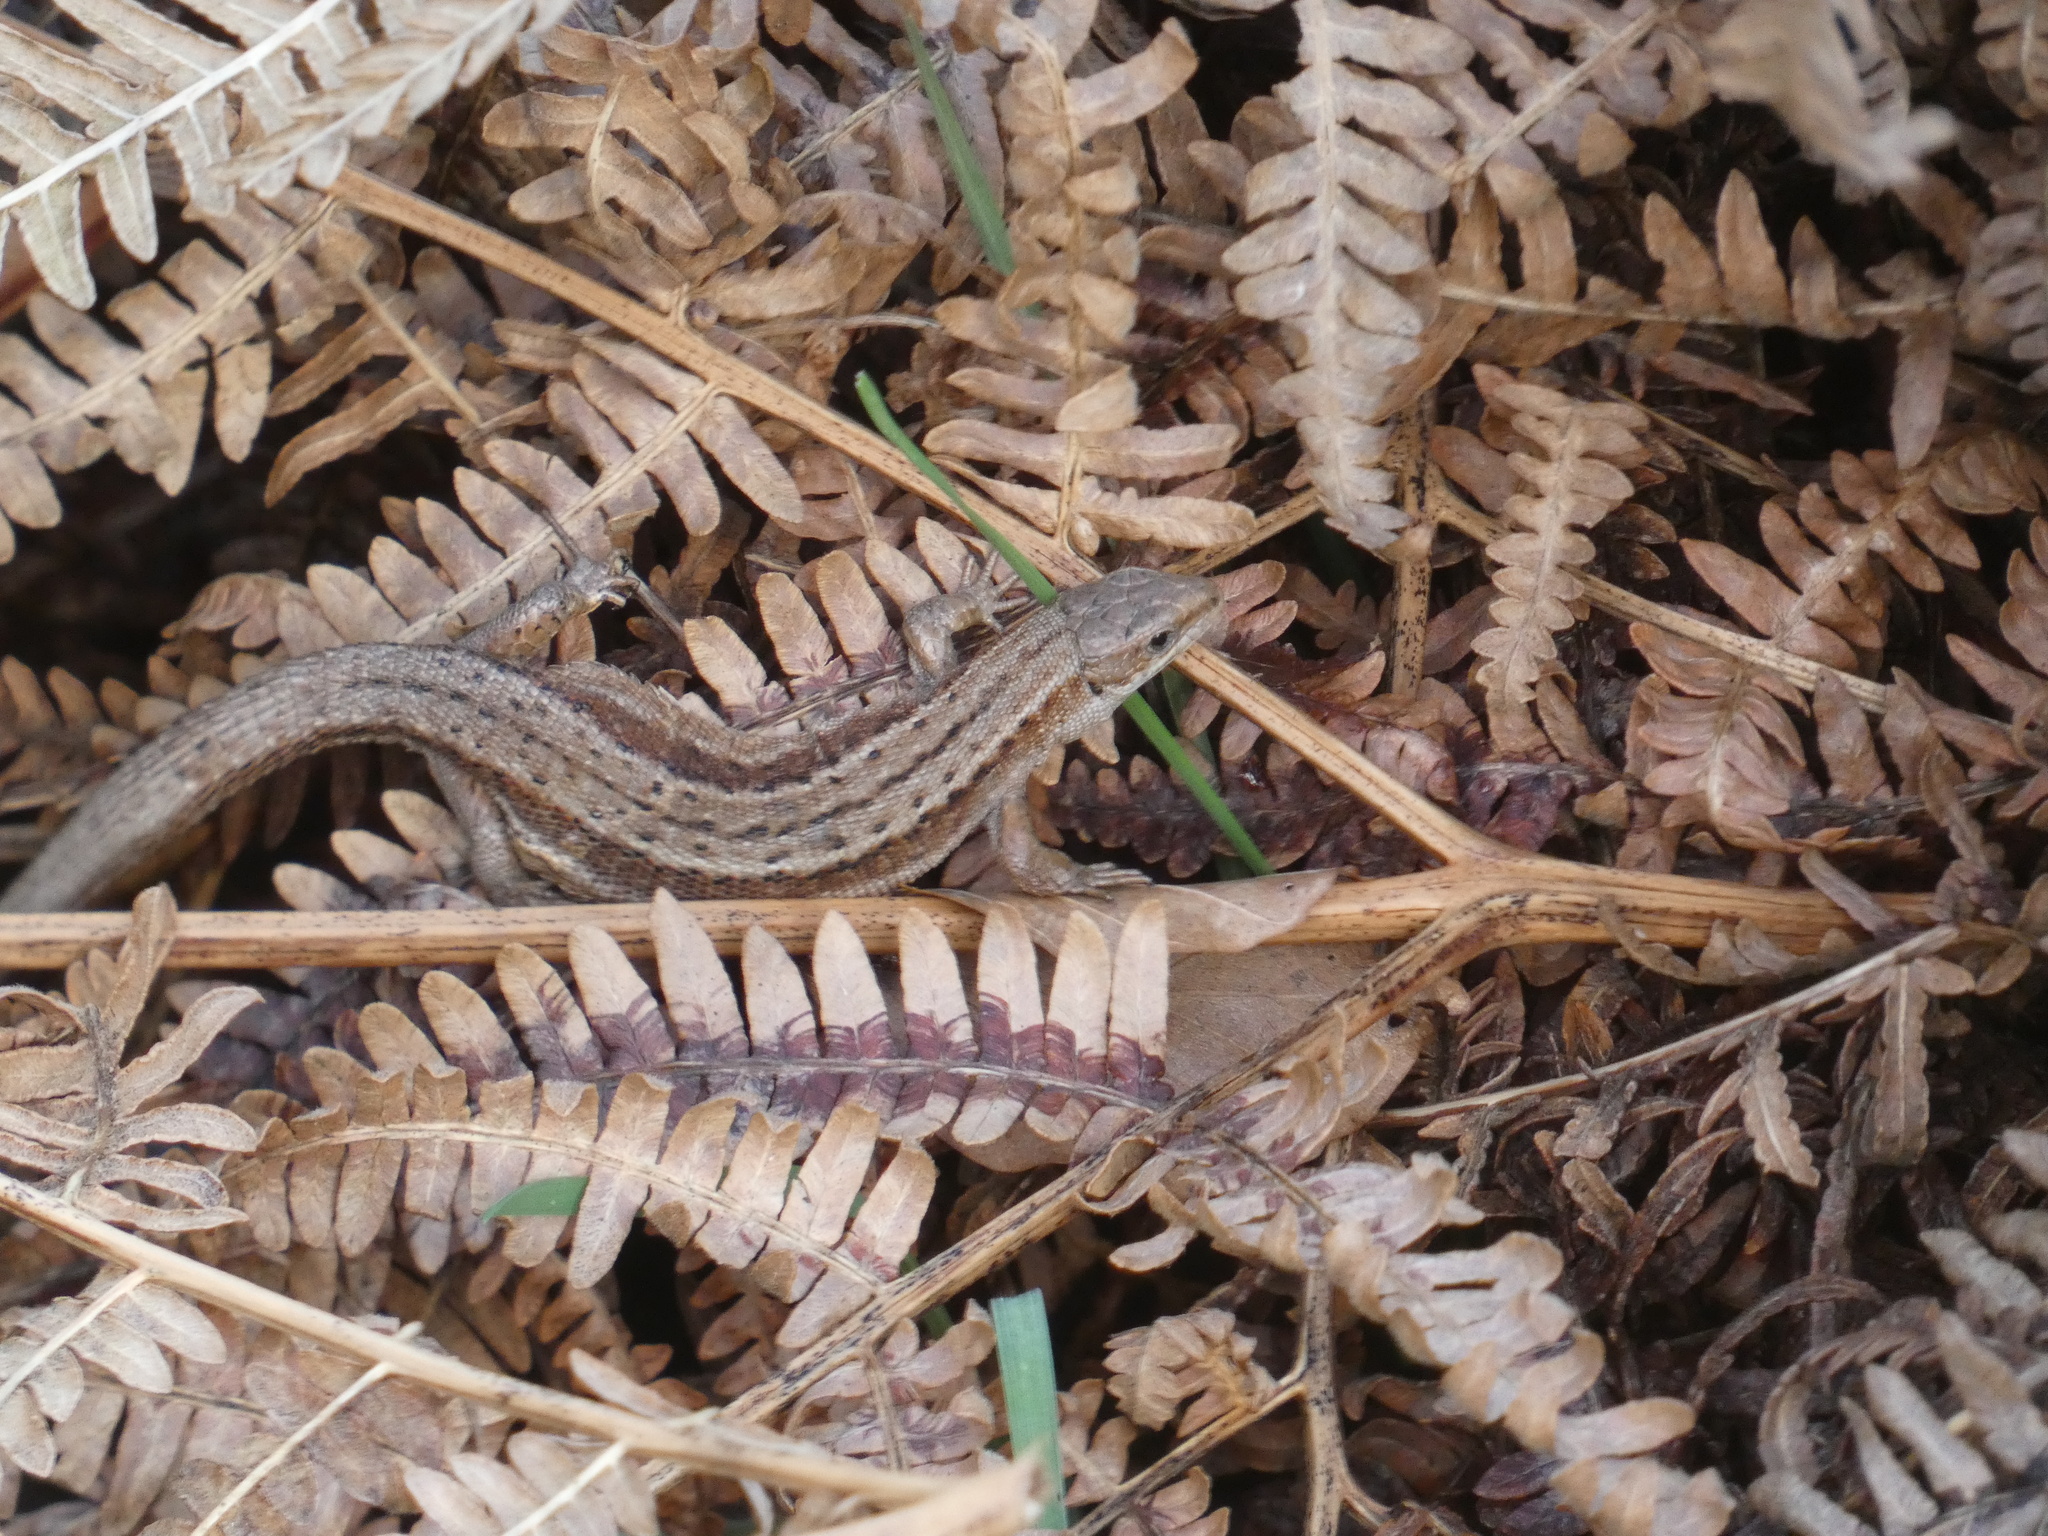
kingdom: Animalia
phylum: Chordata
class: Squamata
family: Lacertidae
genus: Zootoca
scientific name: Zootoca vivipara
